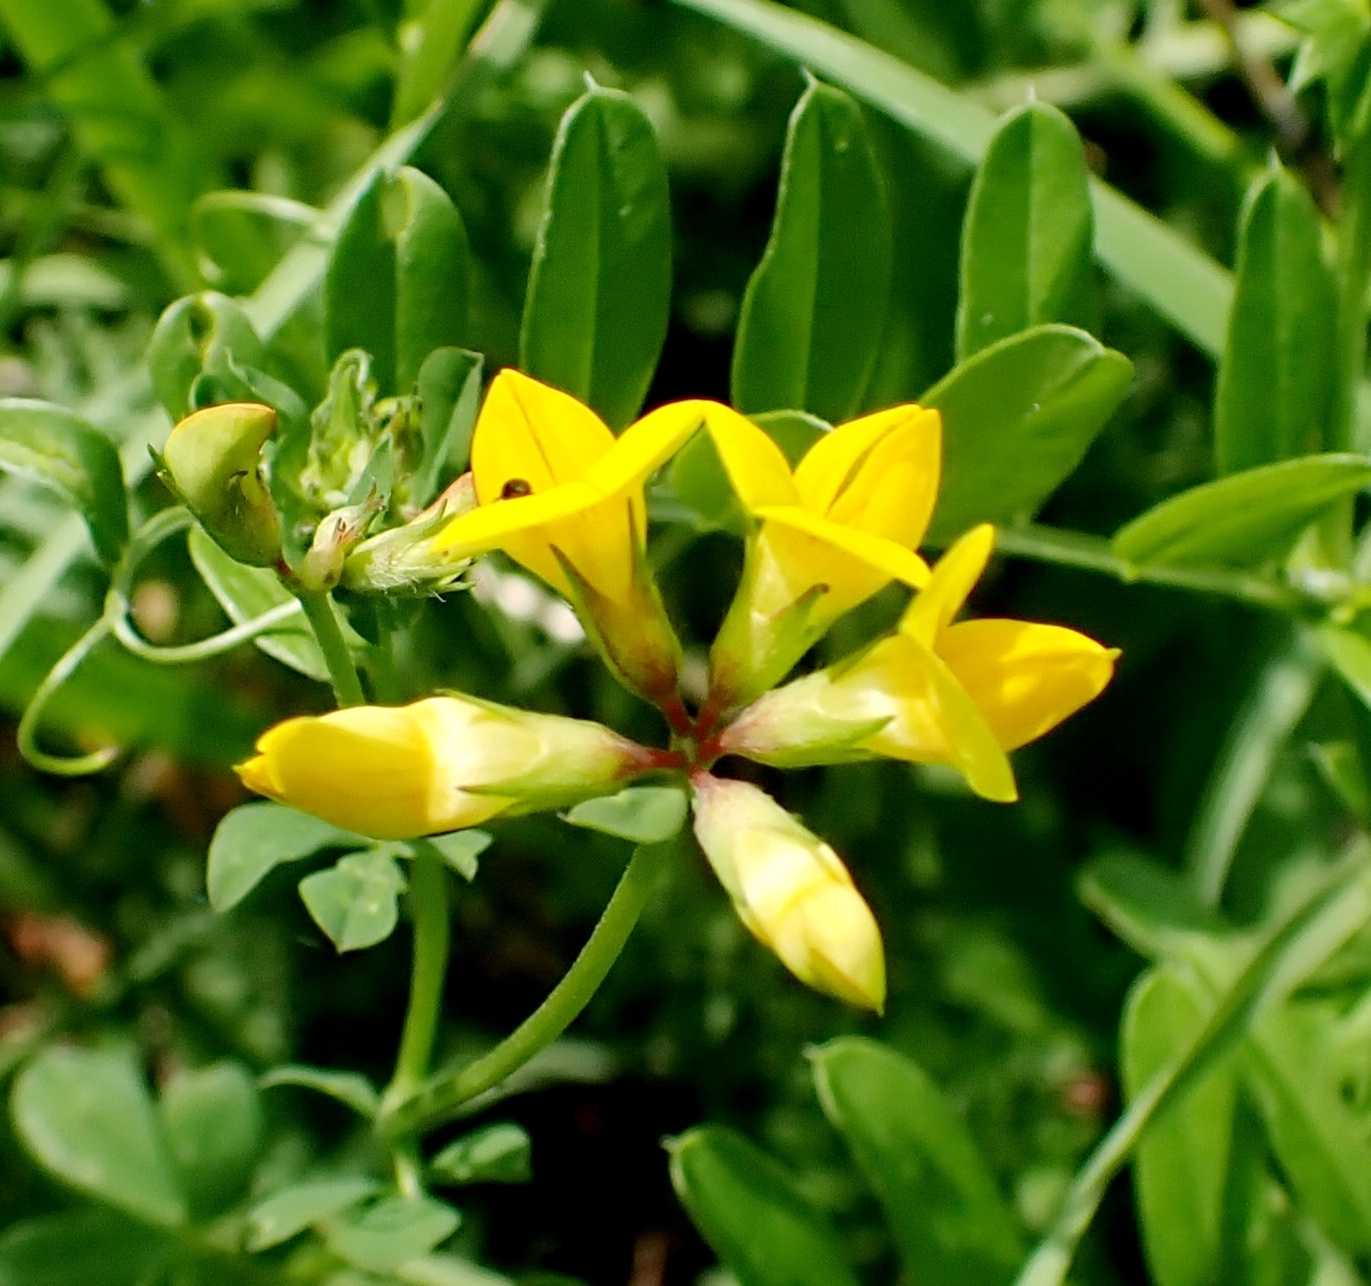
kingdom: Plantae
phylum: Tracheophyta
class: Magnoliopsida
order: Fabales
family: Fabaceae
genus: Lotus
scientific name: Lotus corniculatus
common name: Common bird's-foot-trefoil
